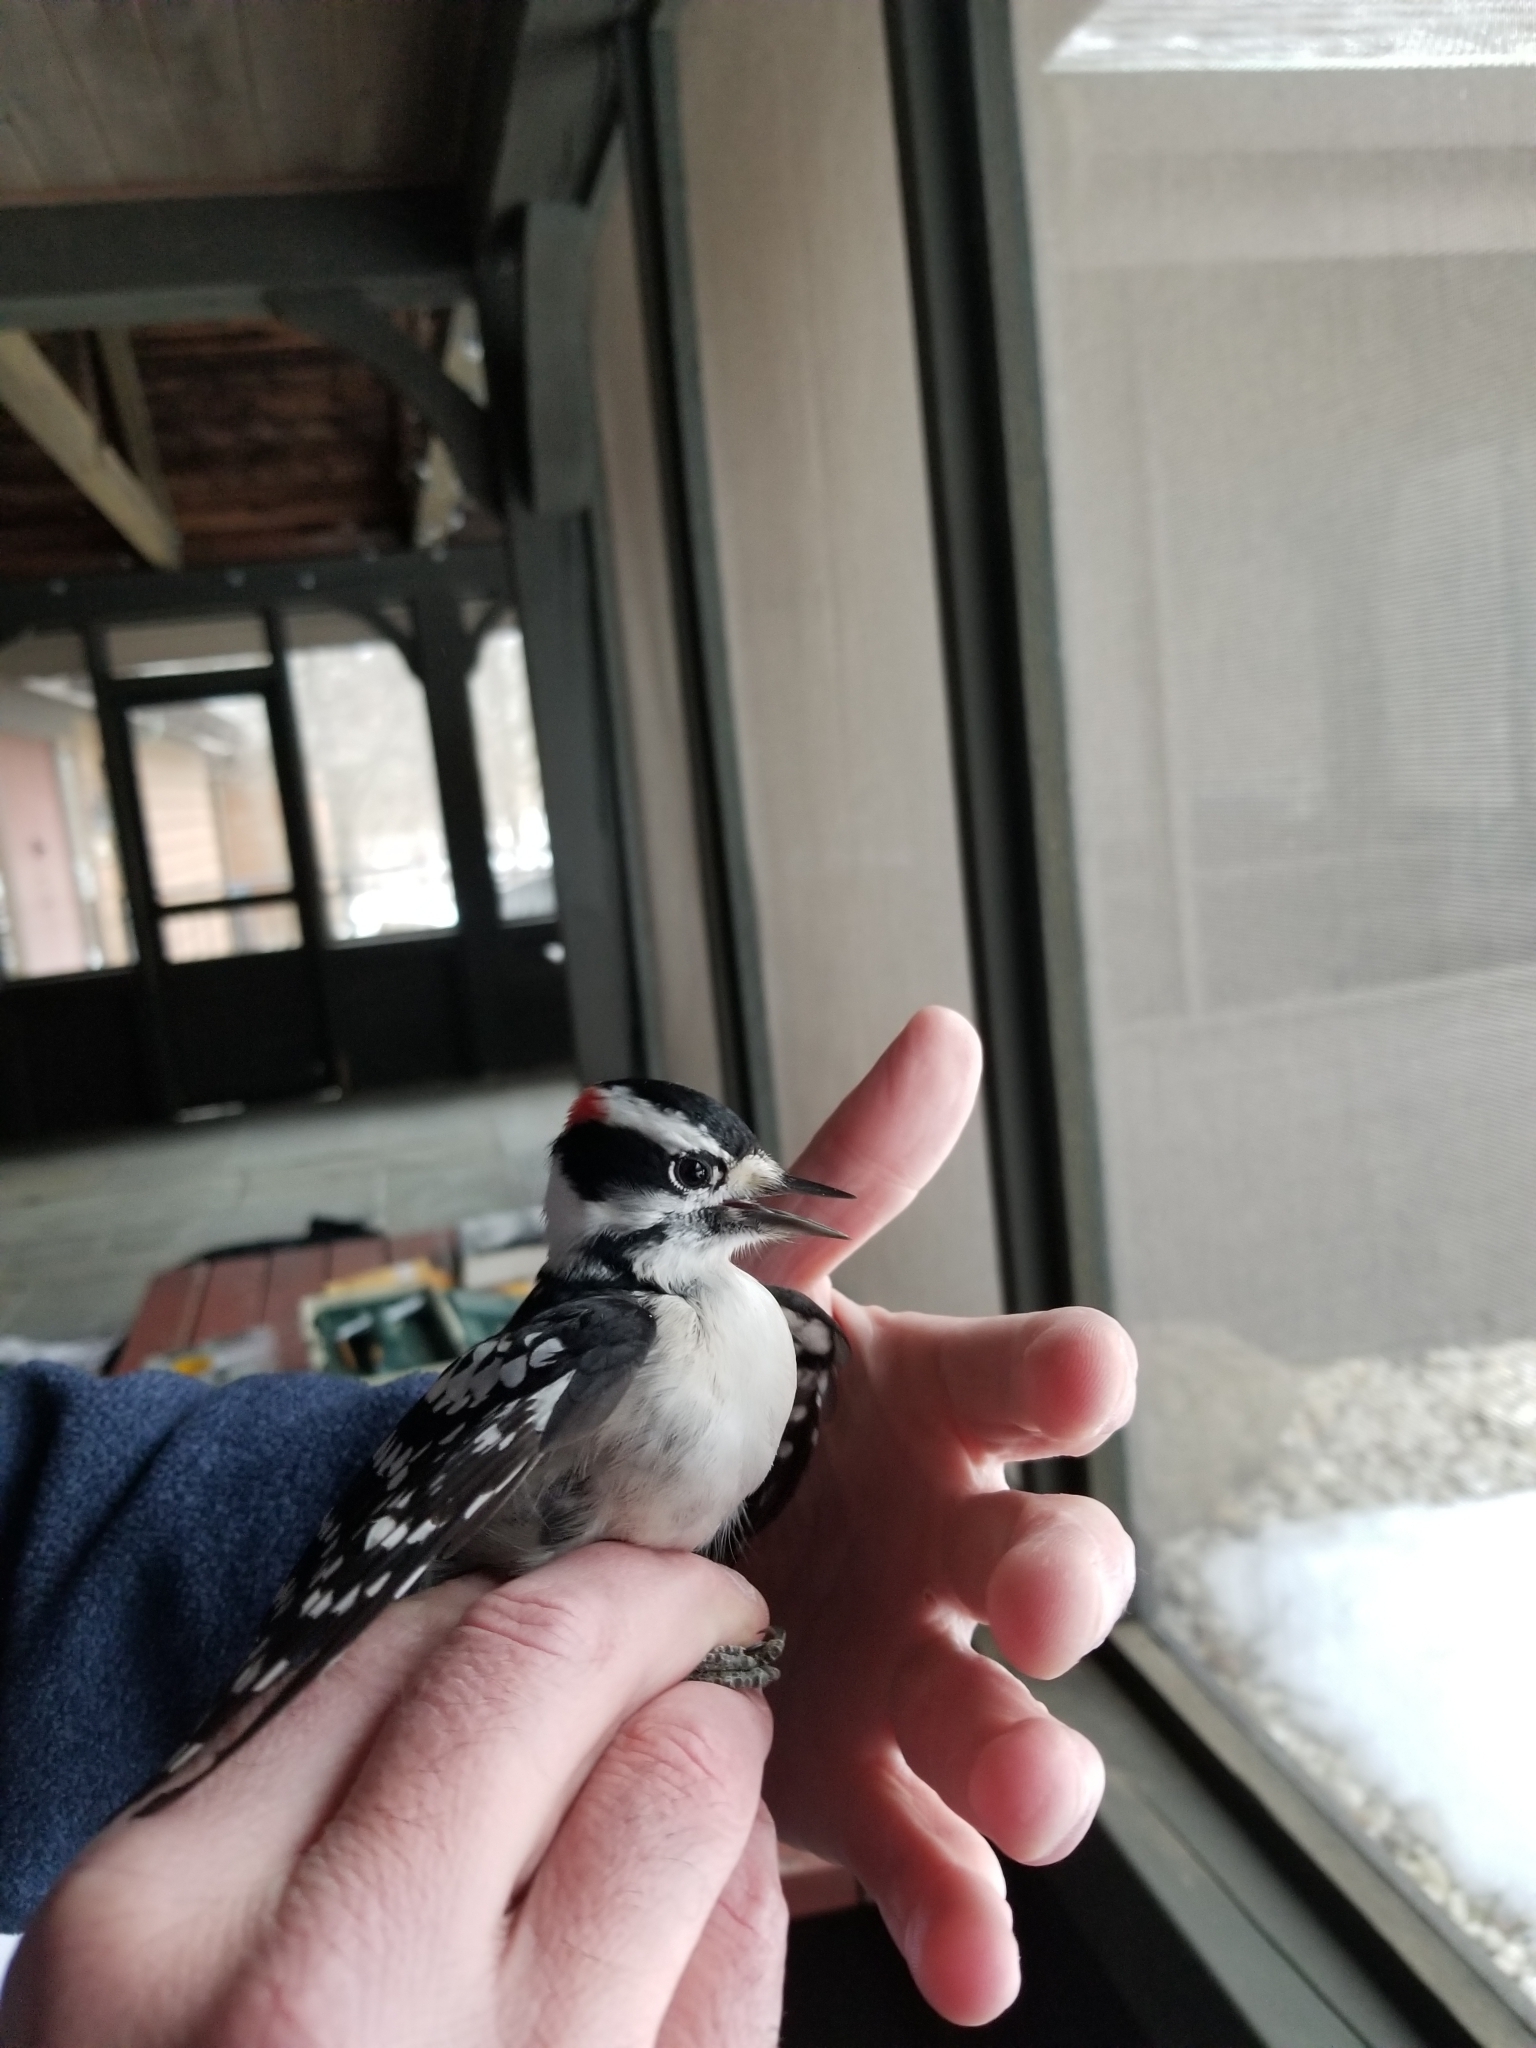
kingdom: Animalia
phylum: Chordata
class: Aves
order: Piciformes
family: Picidae
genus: Dryobates
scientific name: Dryobates pubescens
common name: Downy woodpecker
